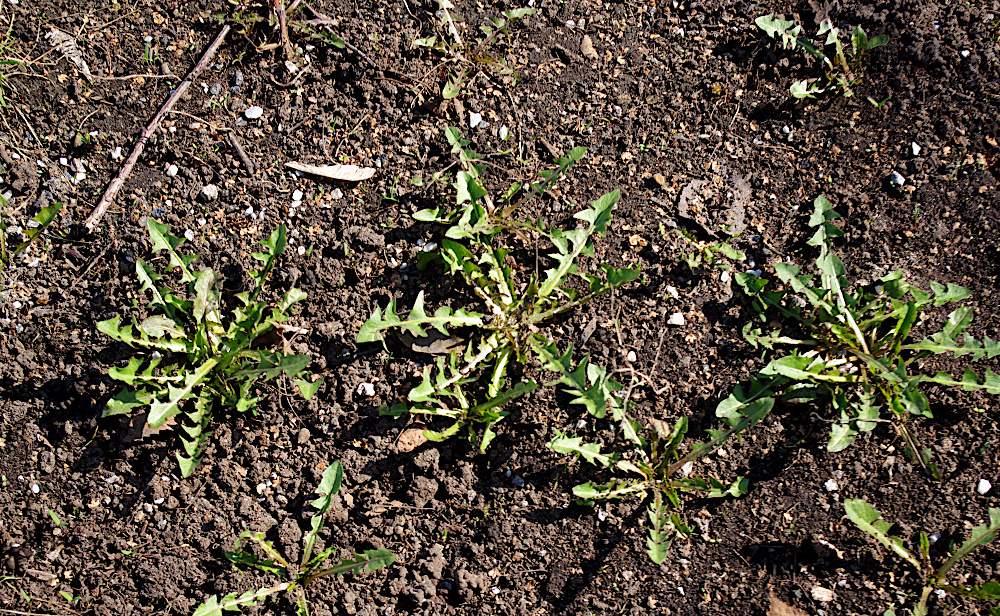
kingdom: Plantae
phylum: Tracheophyta
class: Magnoliopsida
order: Asterales
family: Asteraceae
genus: Taraxacum
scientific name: Taraxacum officinale
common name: Common dandelion
